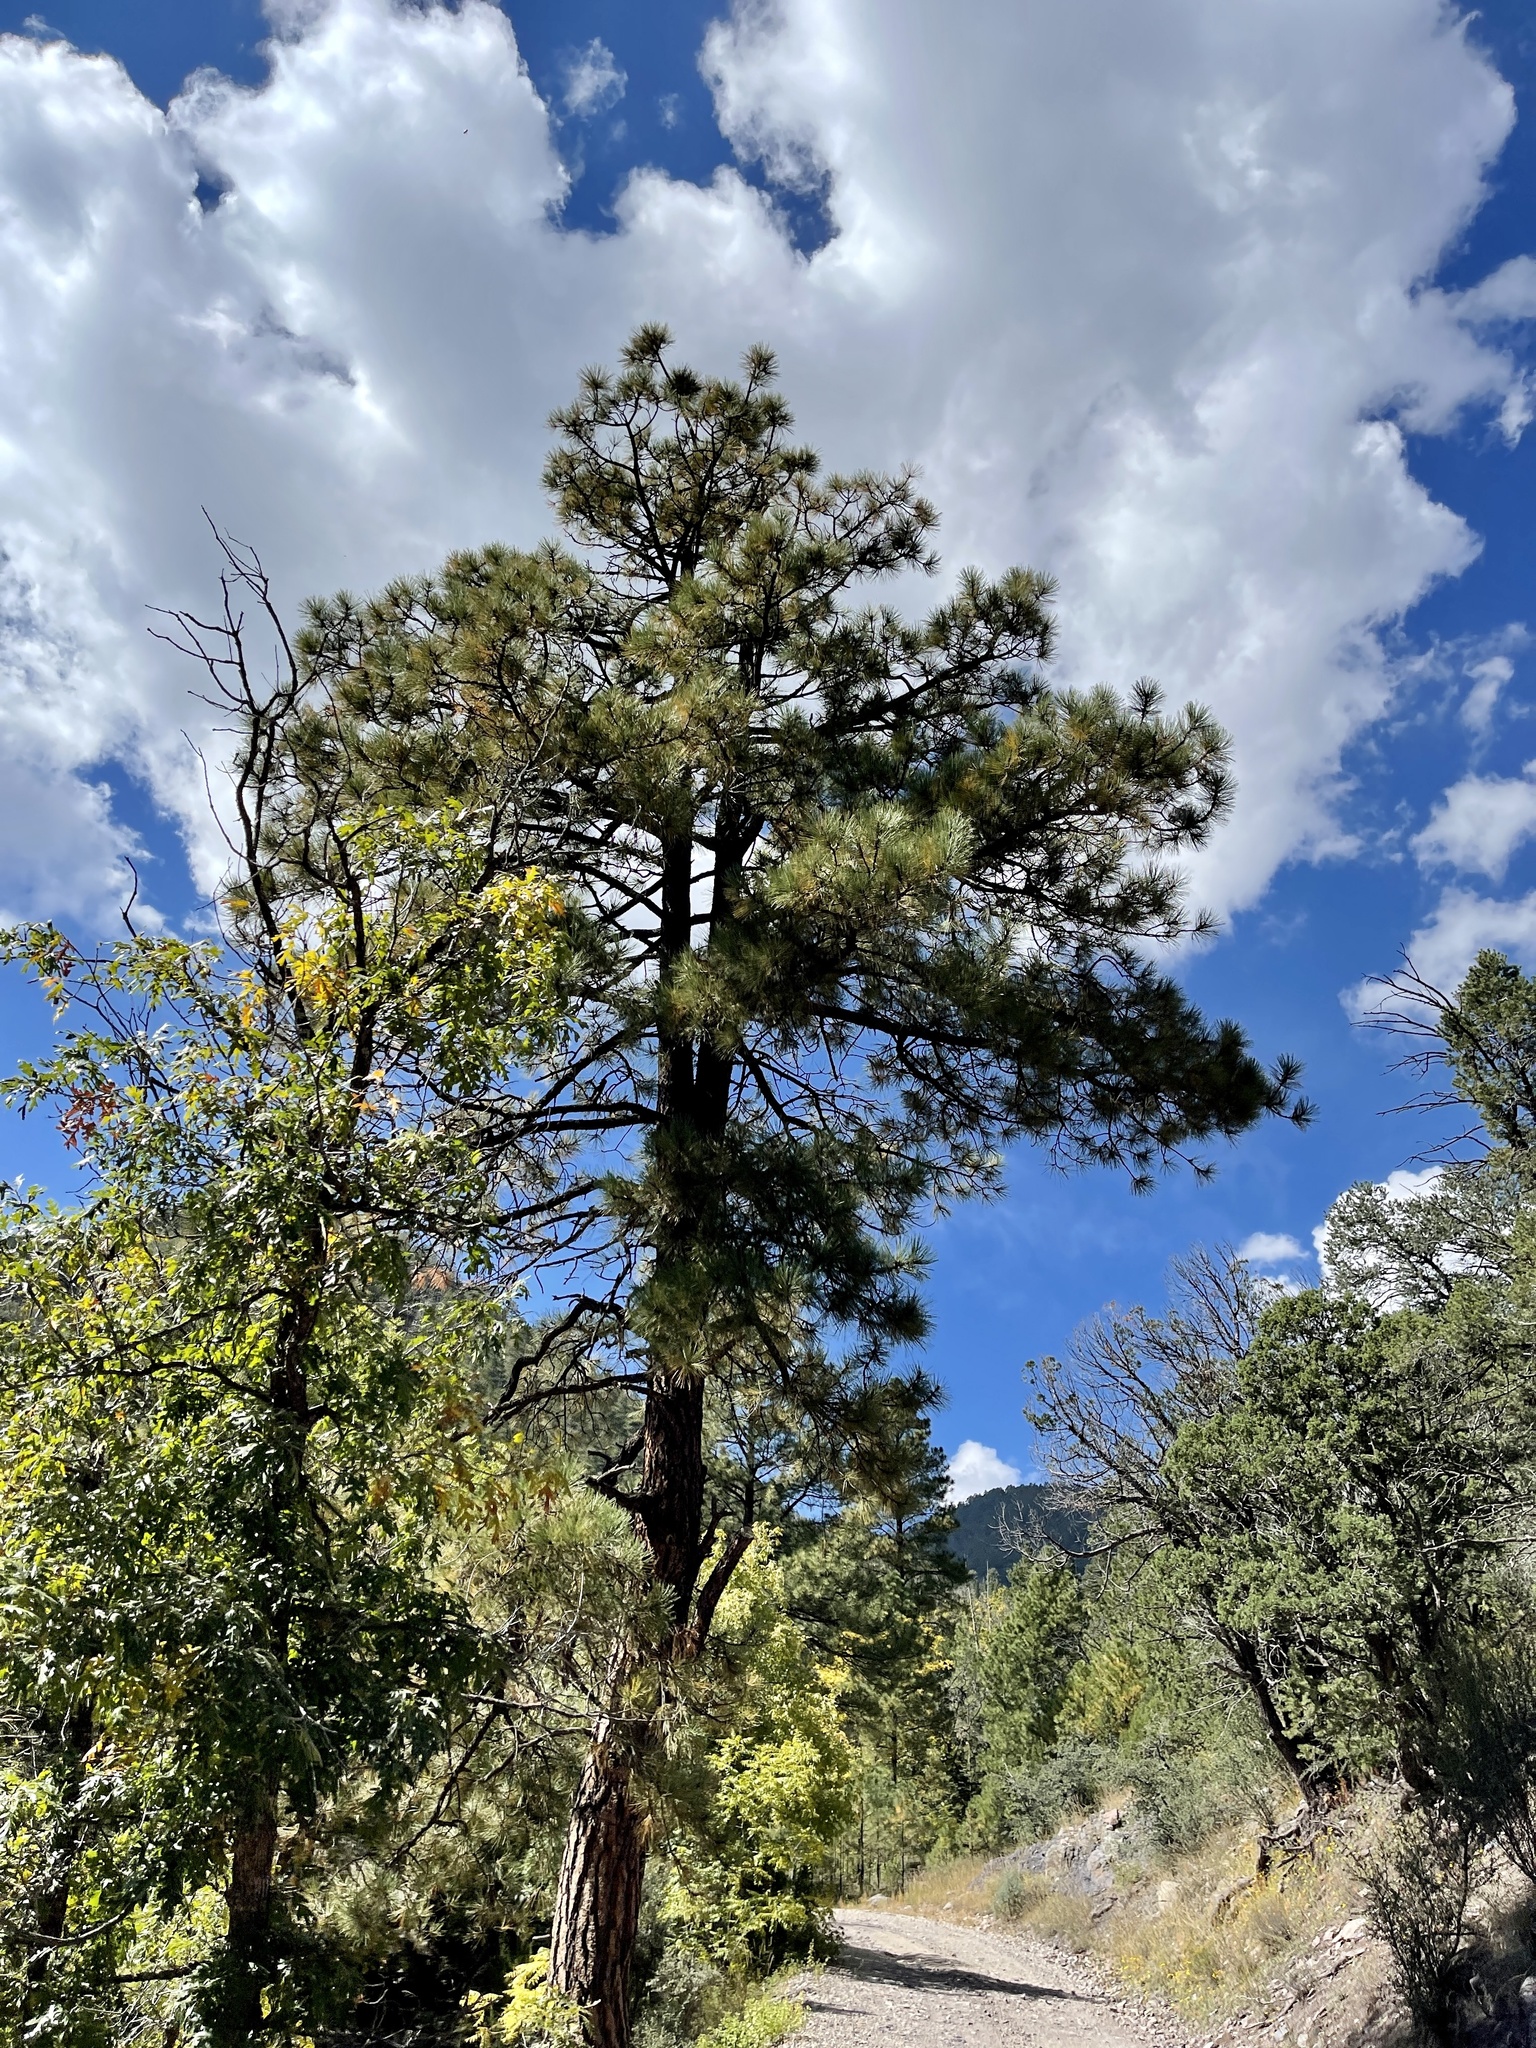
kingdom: Plantae
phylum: Tracheophyta
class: Pinopsida
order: Pinales
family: Pinaceae
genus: Pinus
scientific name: Pinus ponderosa
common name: Western yellow-pine
